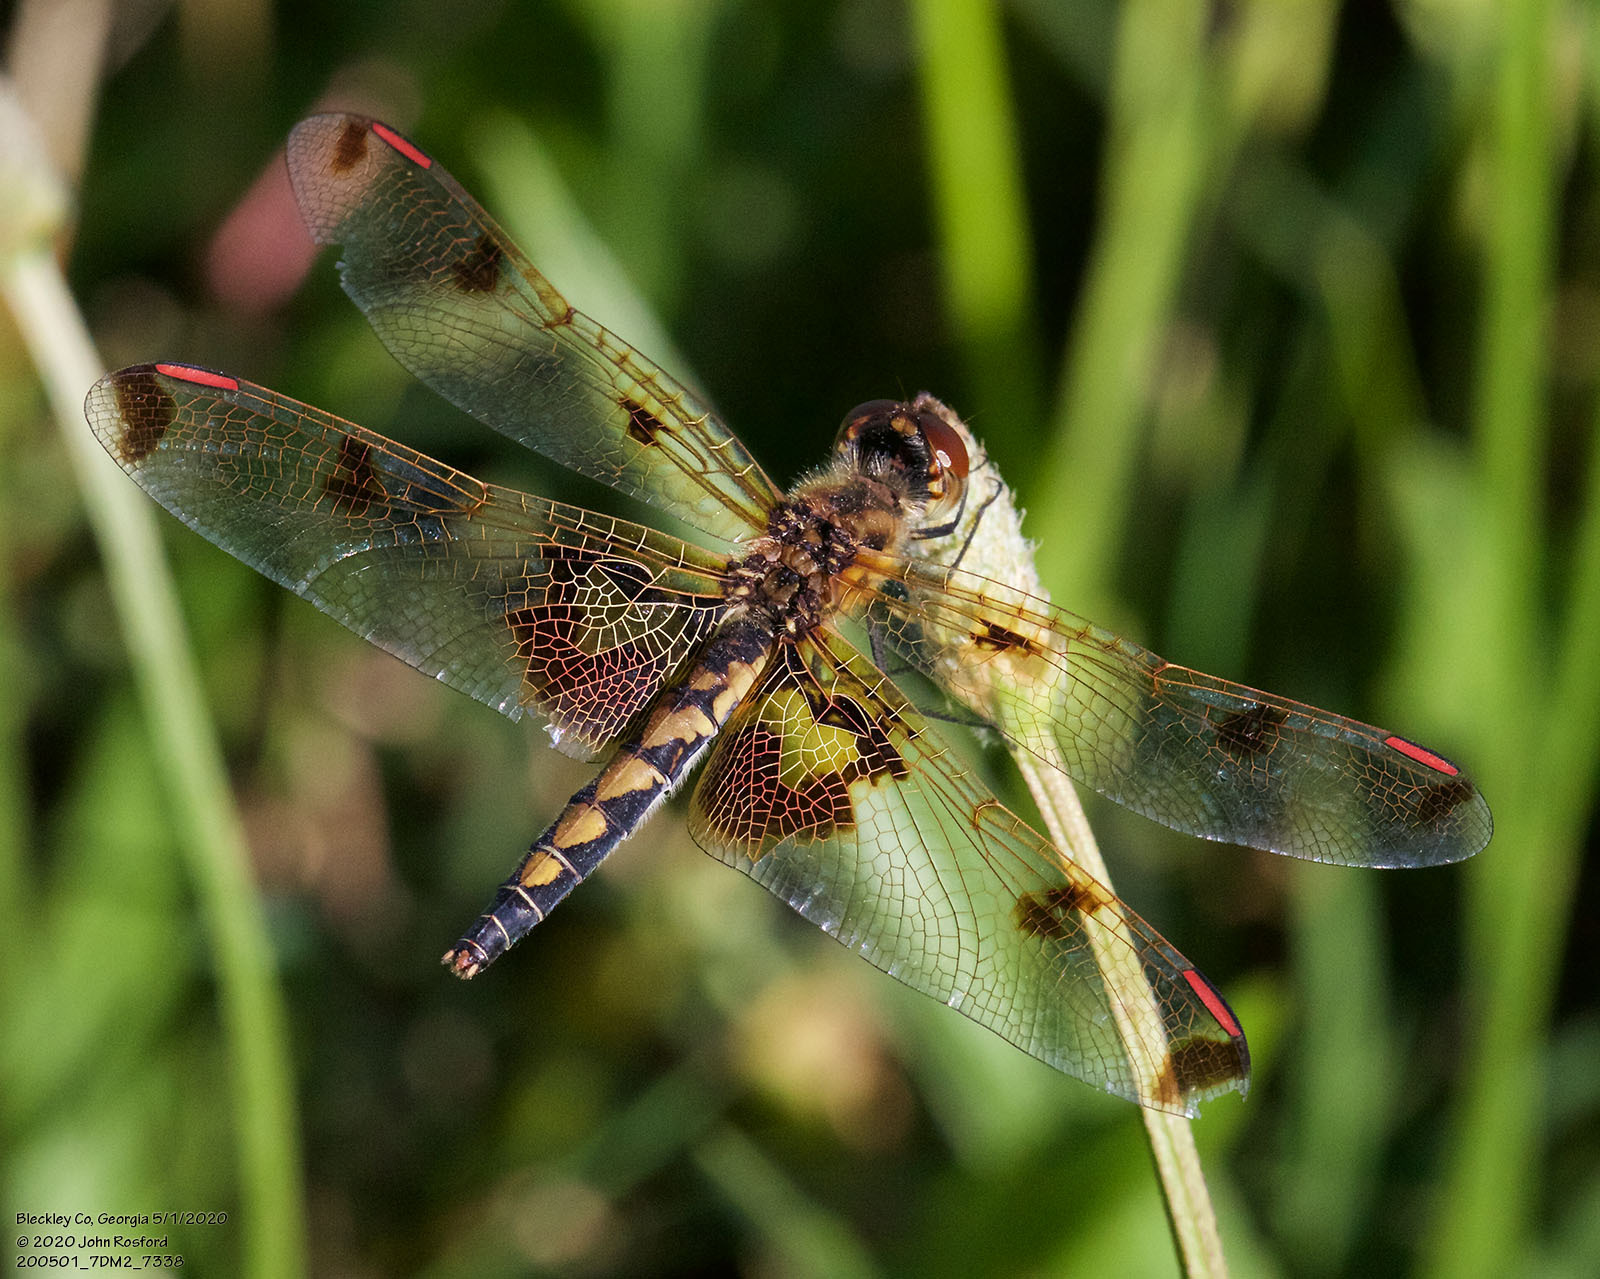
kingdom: Animalia
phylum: Arthropoda
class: Insecta
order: Odonata
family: Libellulidae
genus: Celithemis
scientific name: Celithemis elisa
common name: Calico pennant
